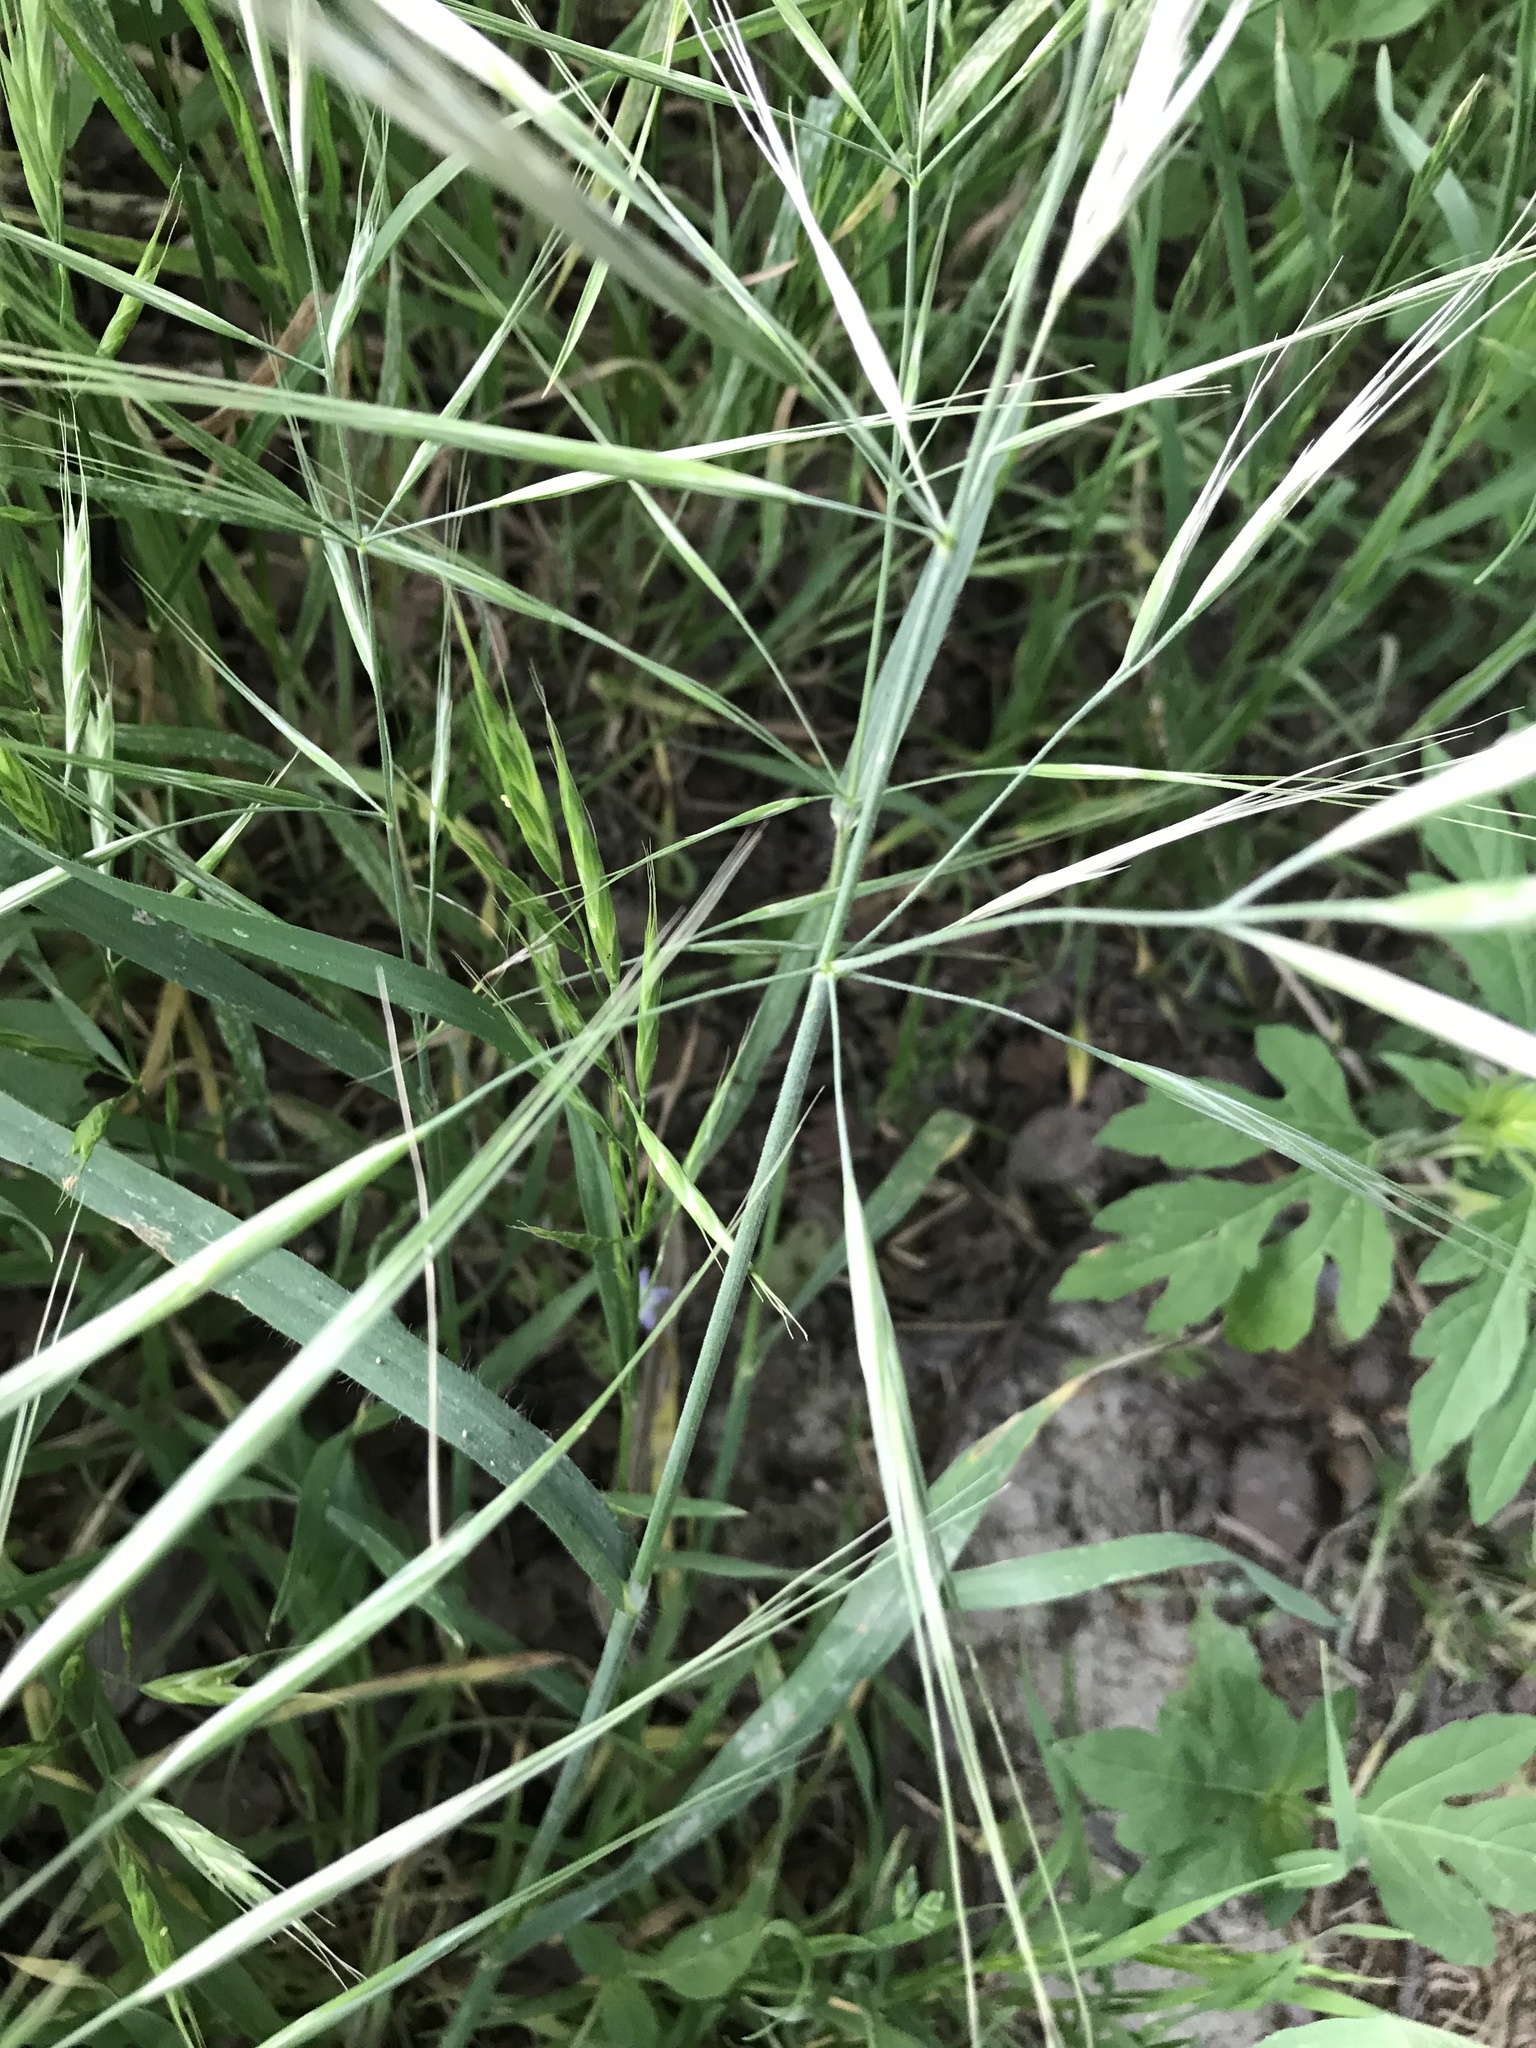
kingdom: Plantae
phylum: Tracheophyta
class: Liliopsida
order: Poales
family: Poaceae
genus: Bromus
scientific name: Bromus diandrus
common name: Ripgut brome
